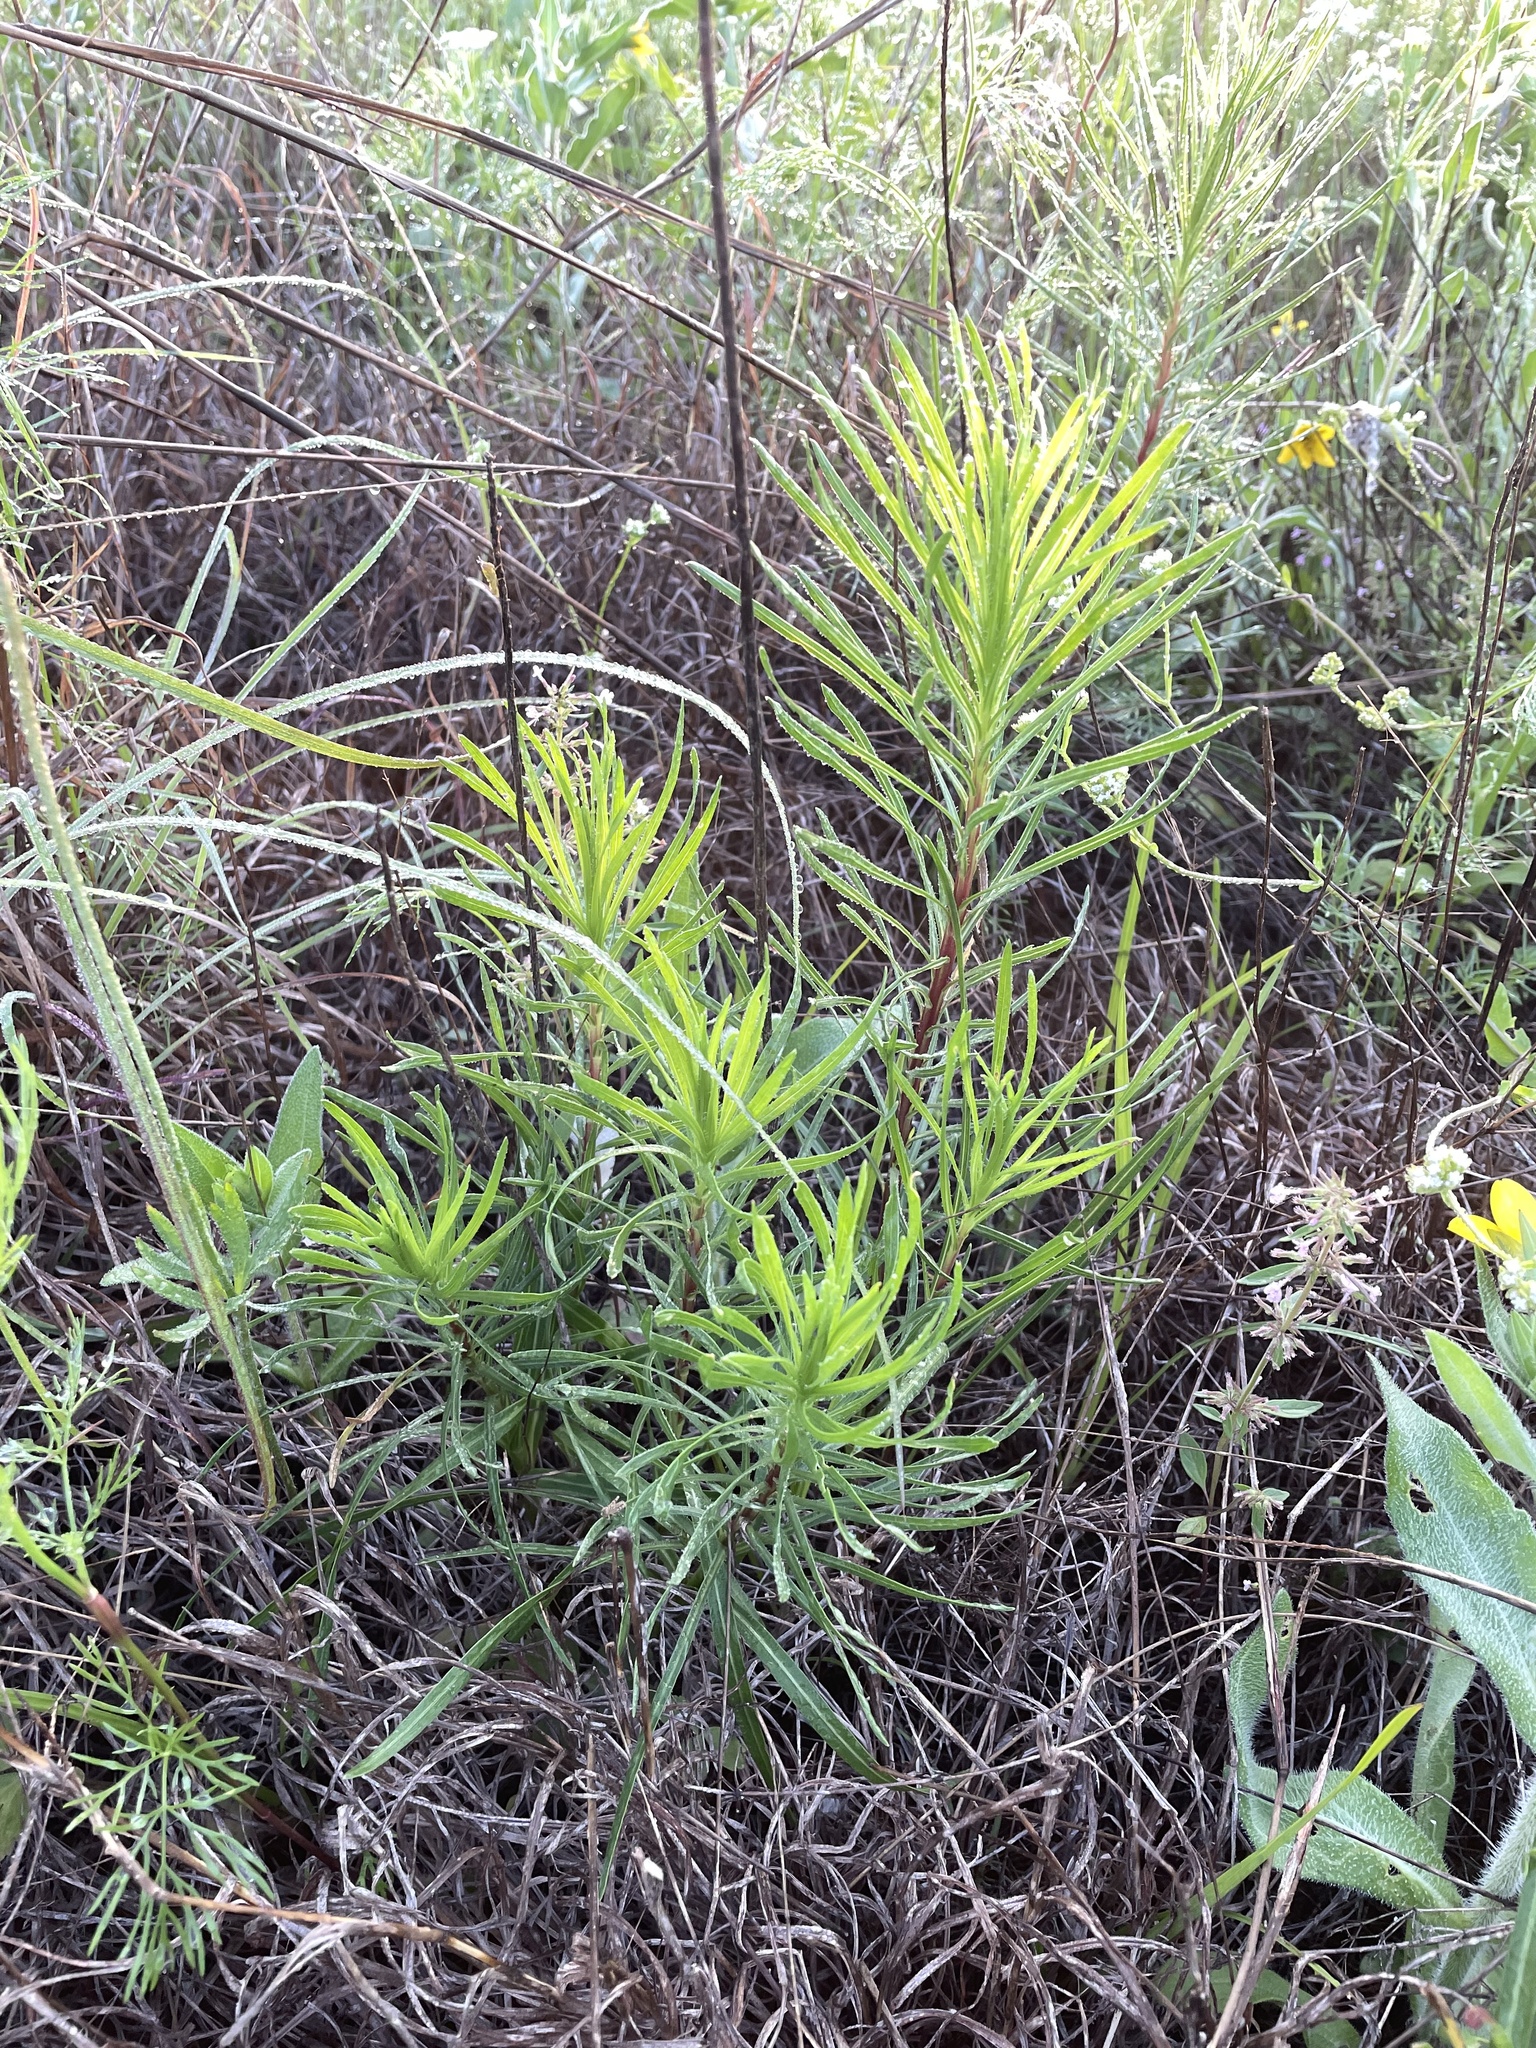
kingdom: Plantae
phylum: Tracheophyta
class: Magnoliopsida
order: Asterales
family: Asteraceae
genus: Liatris
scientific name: Liatris punctata
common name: Dotted gayfeather
